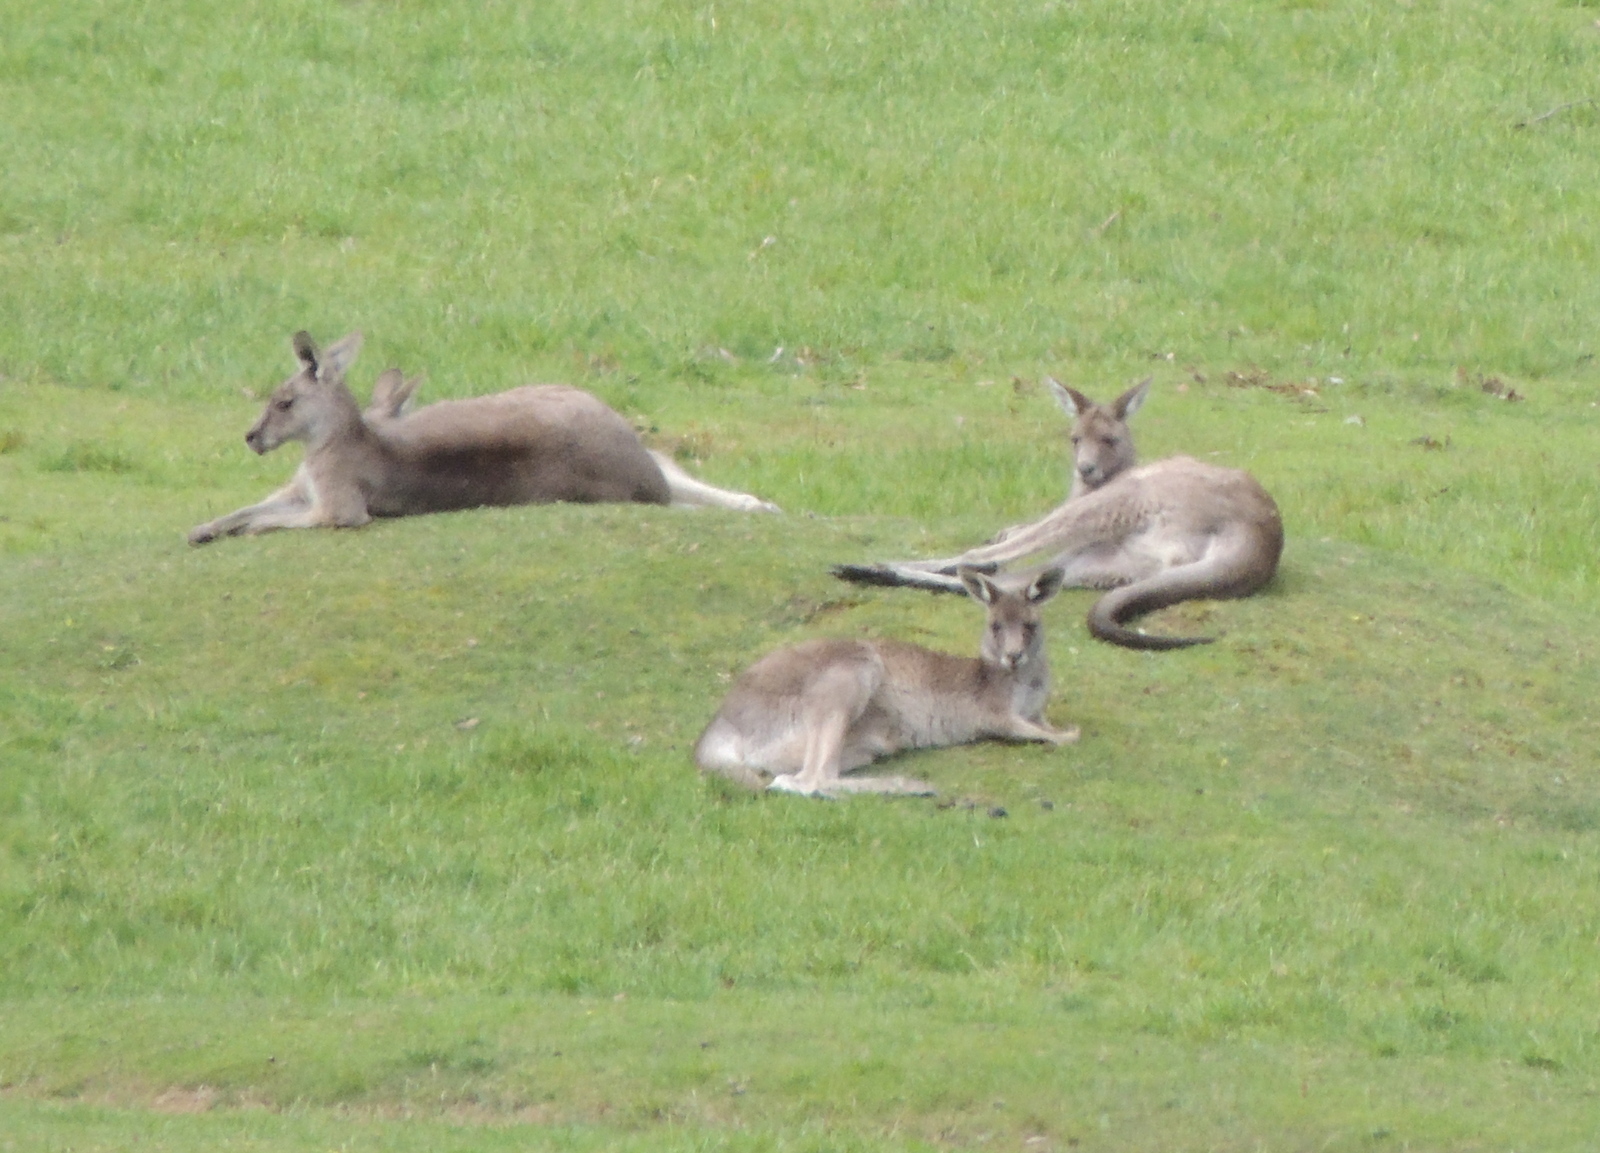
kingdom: Animalia
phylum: Chordata
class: Mammalia
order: Diprotodontia
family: Macropodidae
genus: Macropus
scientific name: Macropus giganteus
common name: Eastern grey kangaroo
